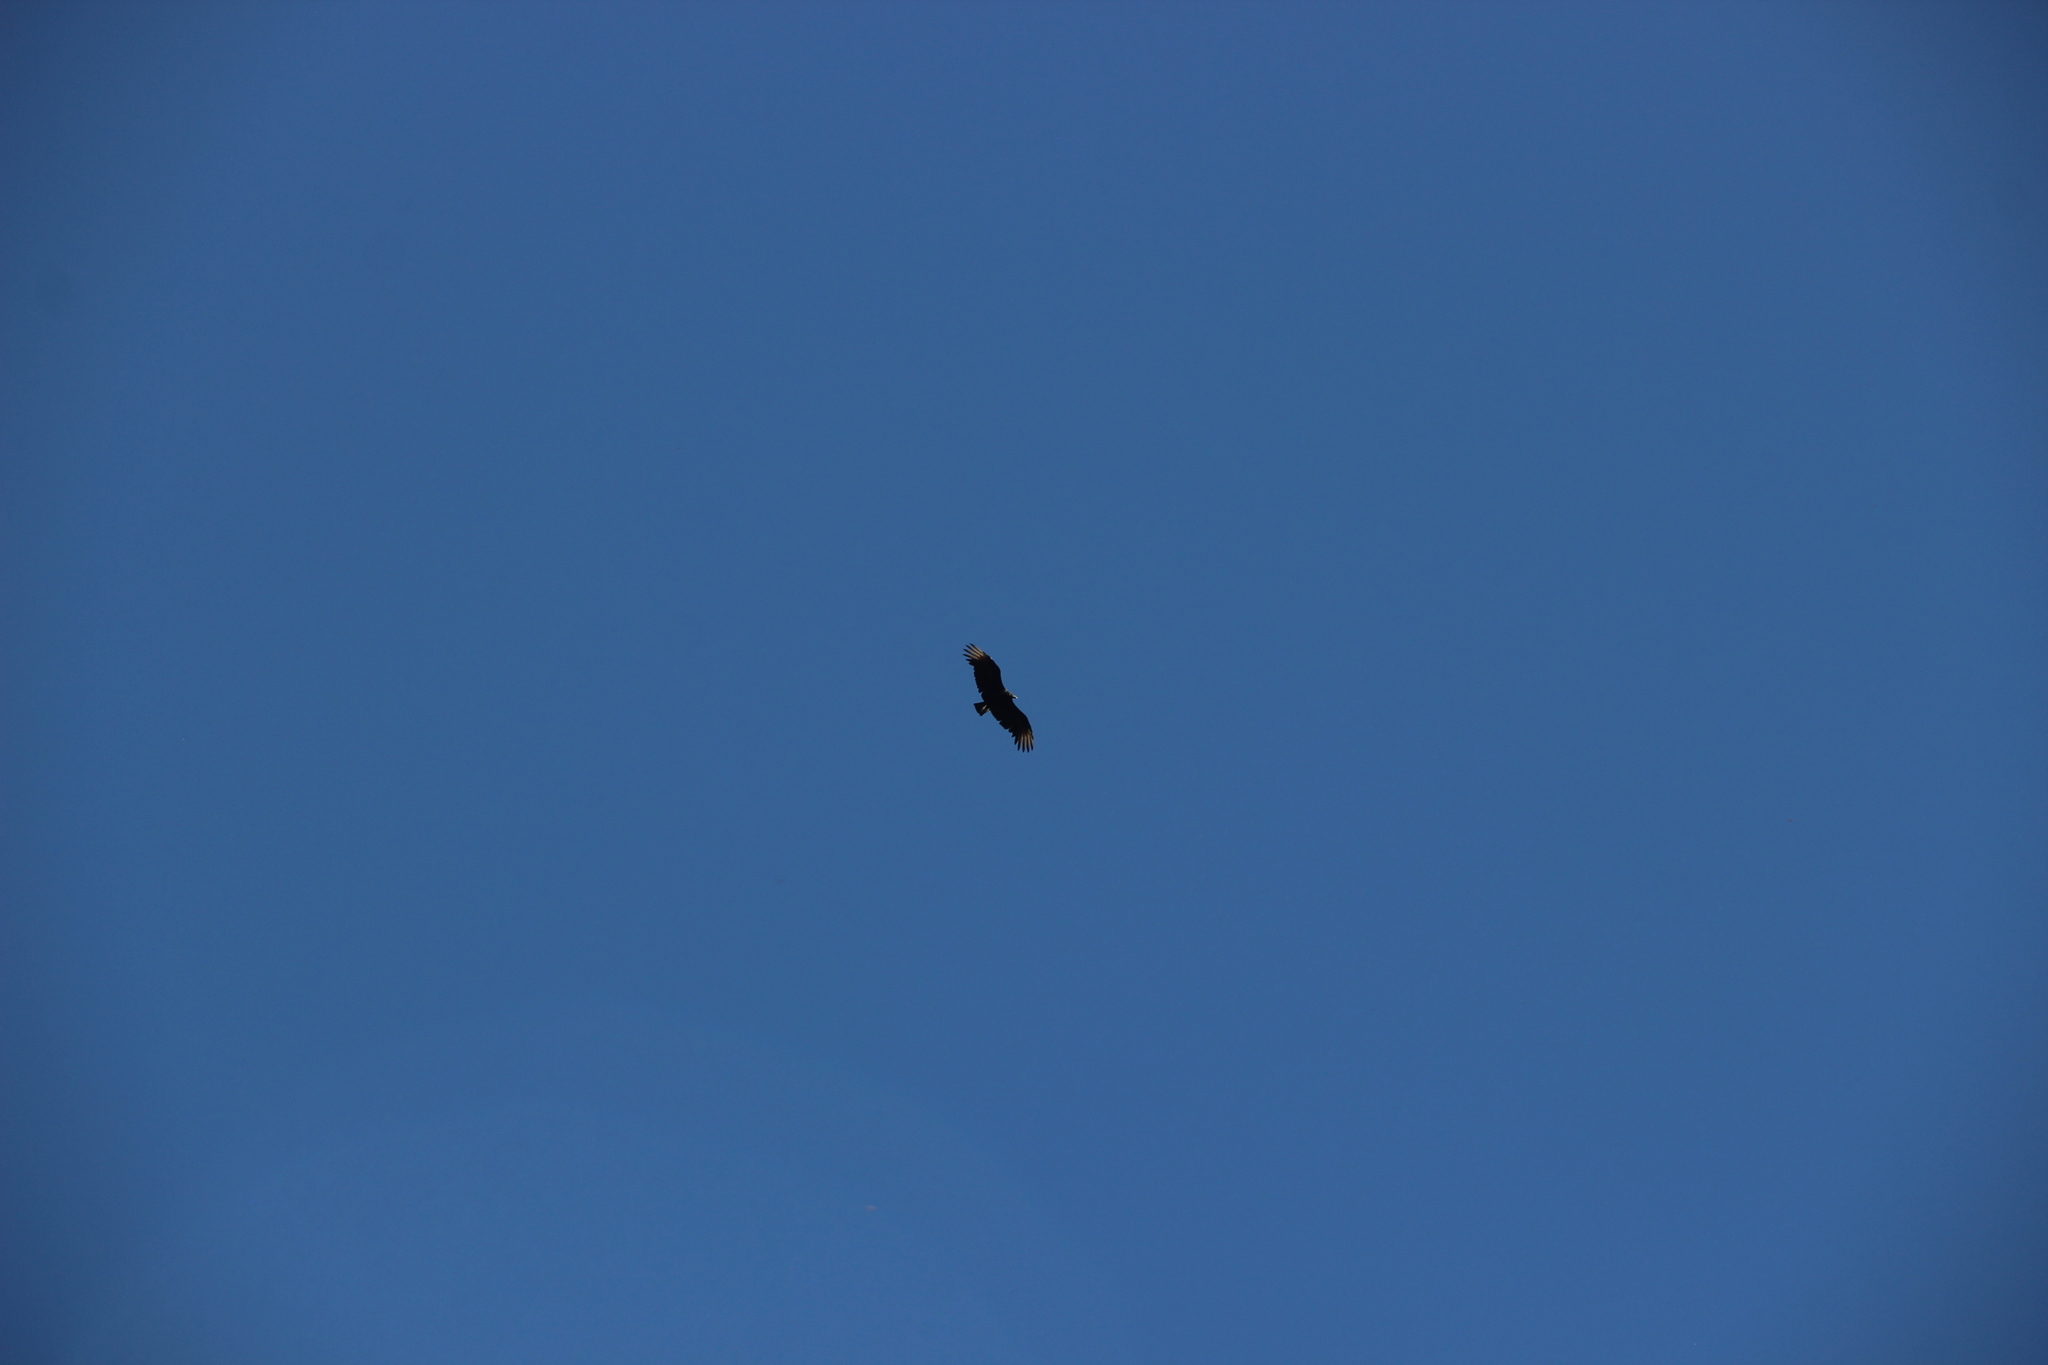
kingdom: Animalia
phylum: Chordata
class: Aves
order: Accipitriformes
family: Cathartidae
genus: Coragyps
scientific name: Coragyps atratus
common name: Black vulture
